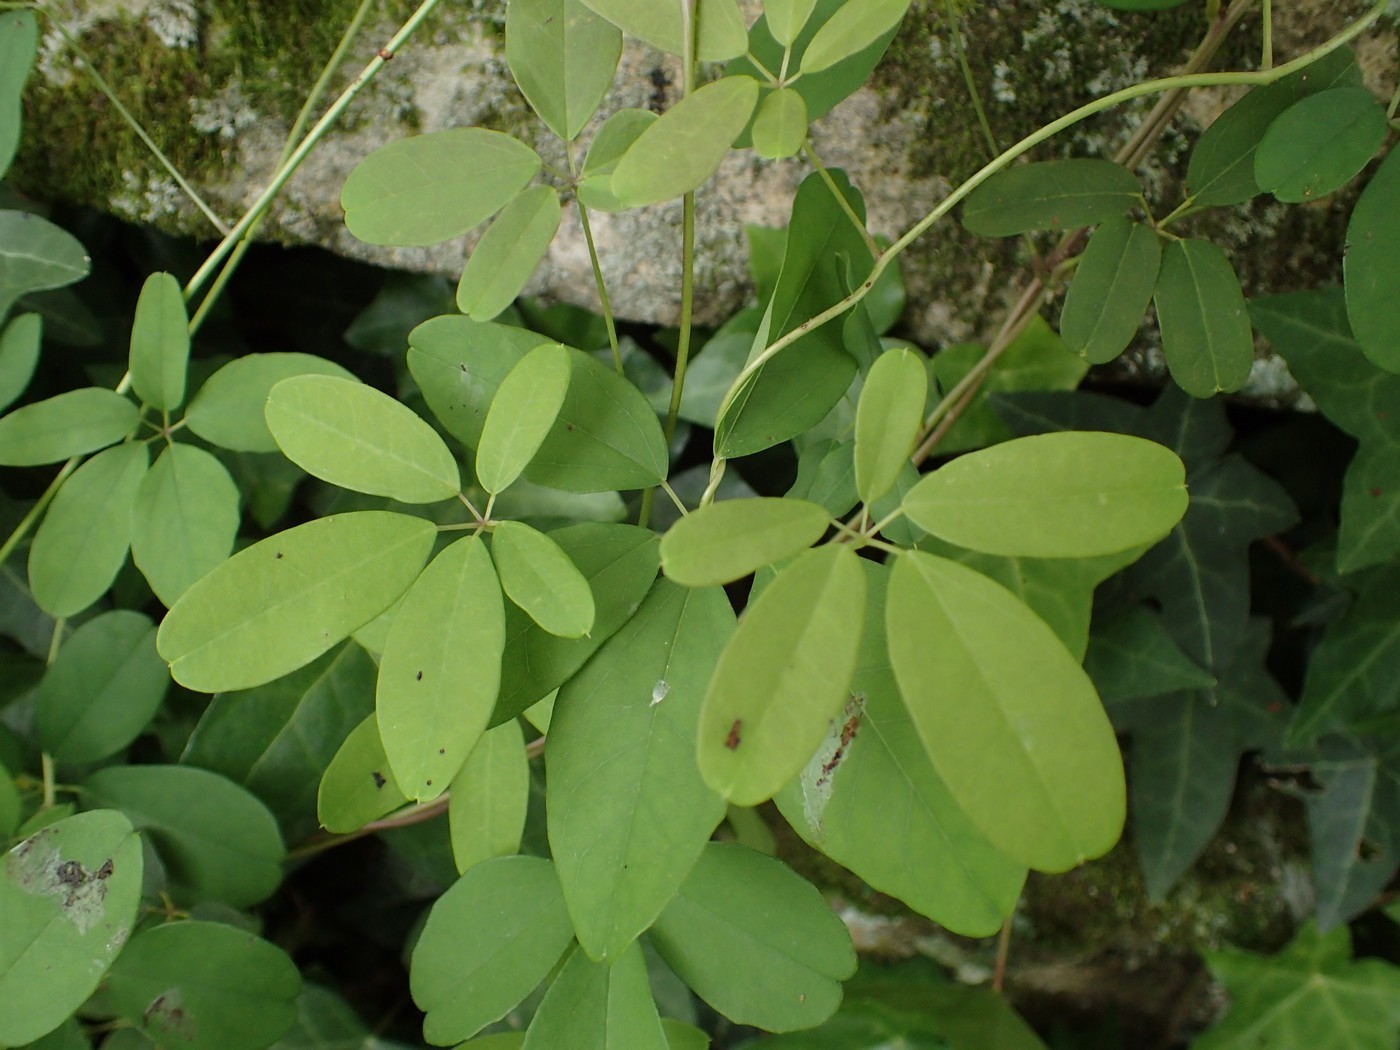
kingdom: Plantae
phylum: Tracheophyta
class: Magnoliopsida
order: Ranunculales
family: Lardizabalaceae
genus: Akebia
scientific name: Akebia quinata
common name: Five-leaf akebia
